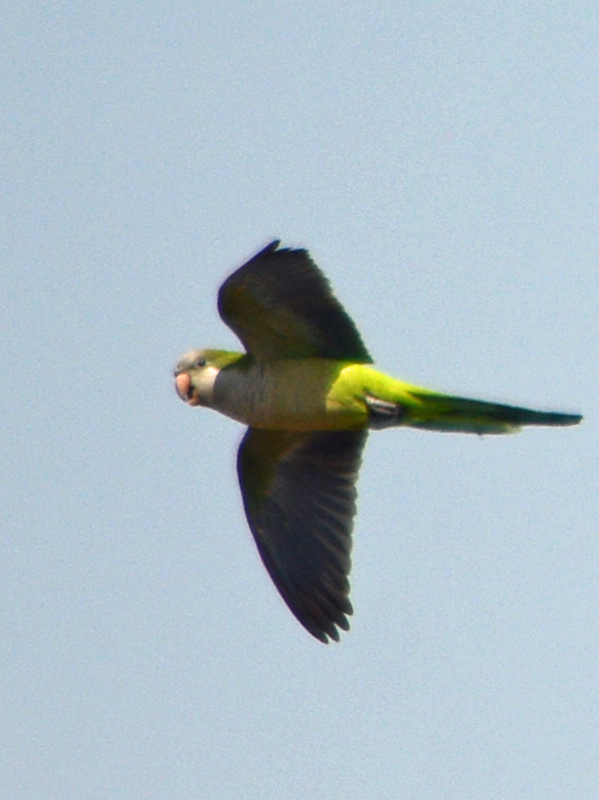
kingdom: Animalia
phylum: Chordata
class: Aves
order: Psittaciformes
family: Psittacidae
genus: Myiopsitta
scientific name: Myiopsitta monachus
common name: Monk parakeet
